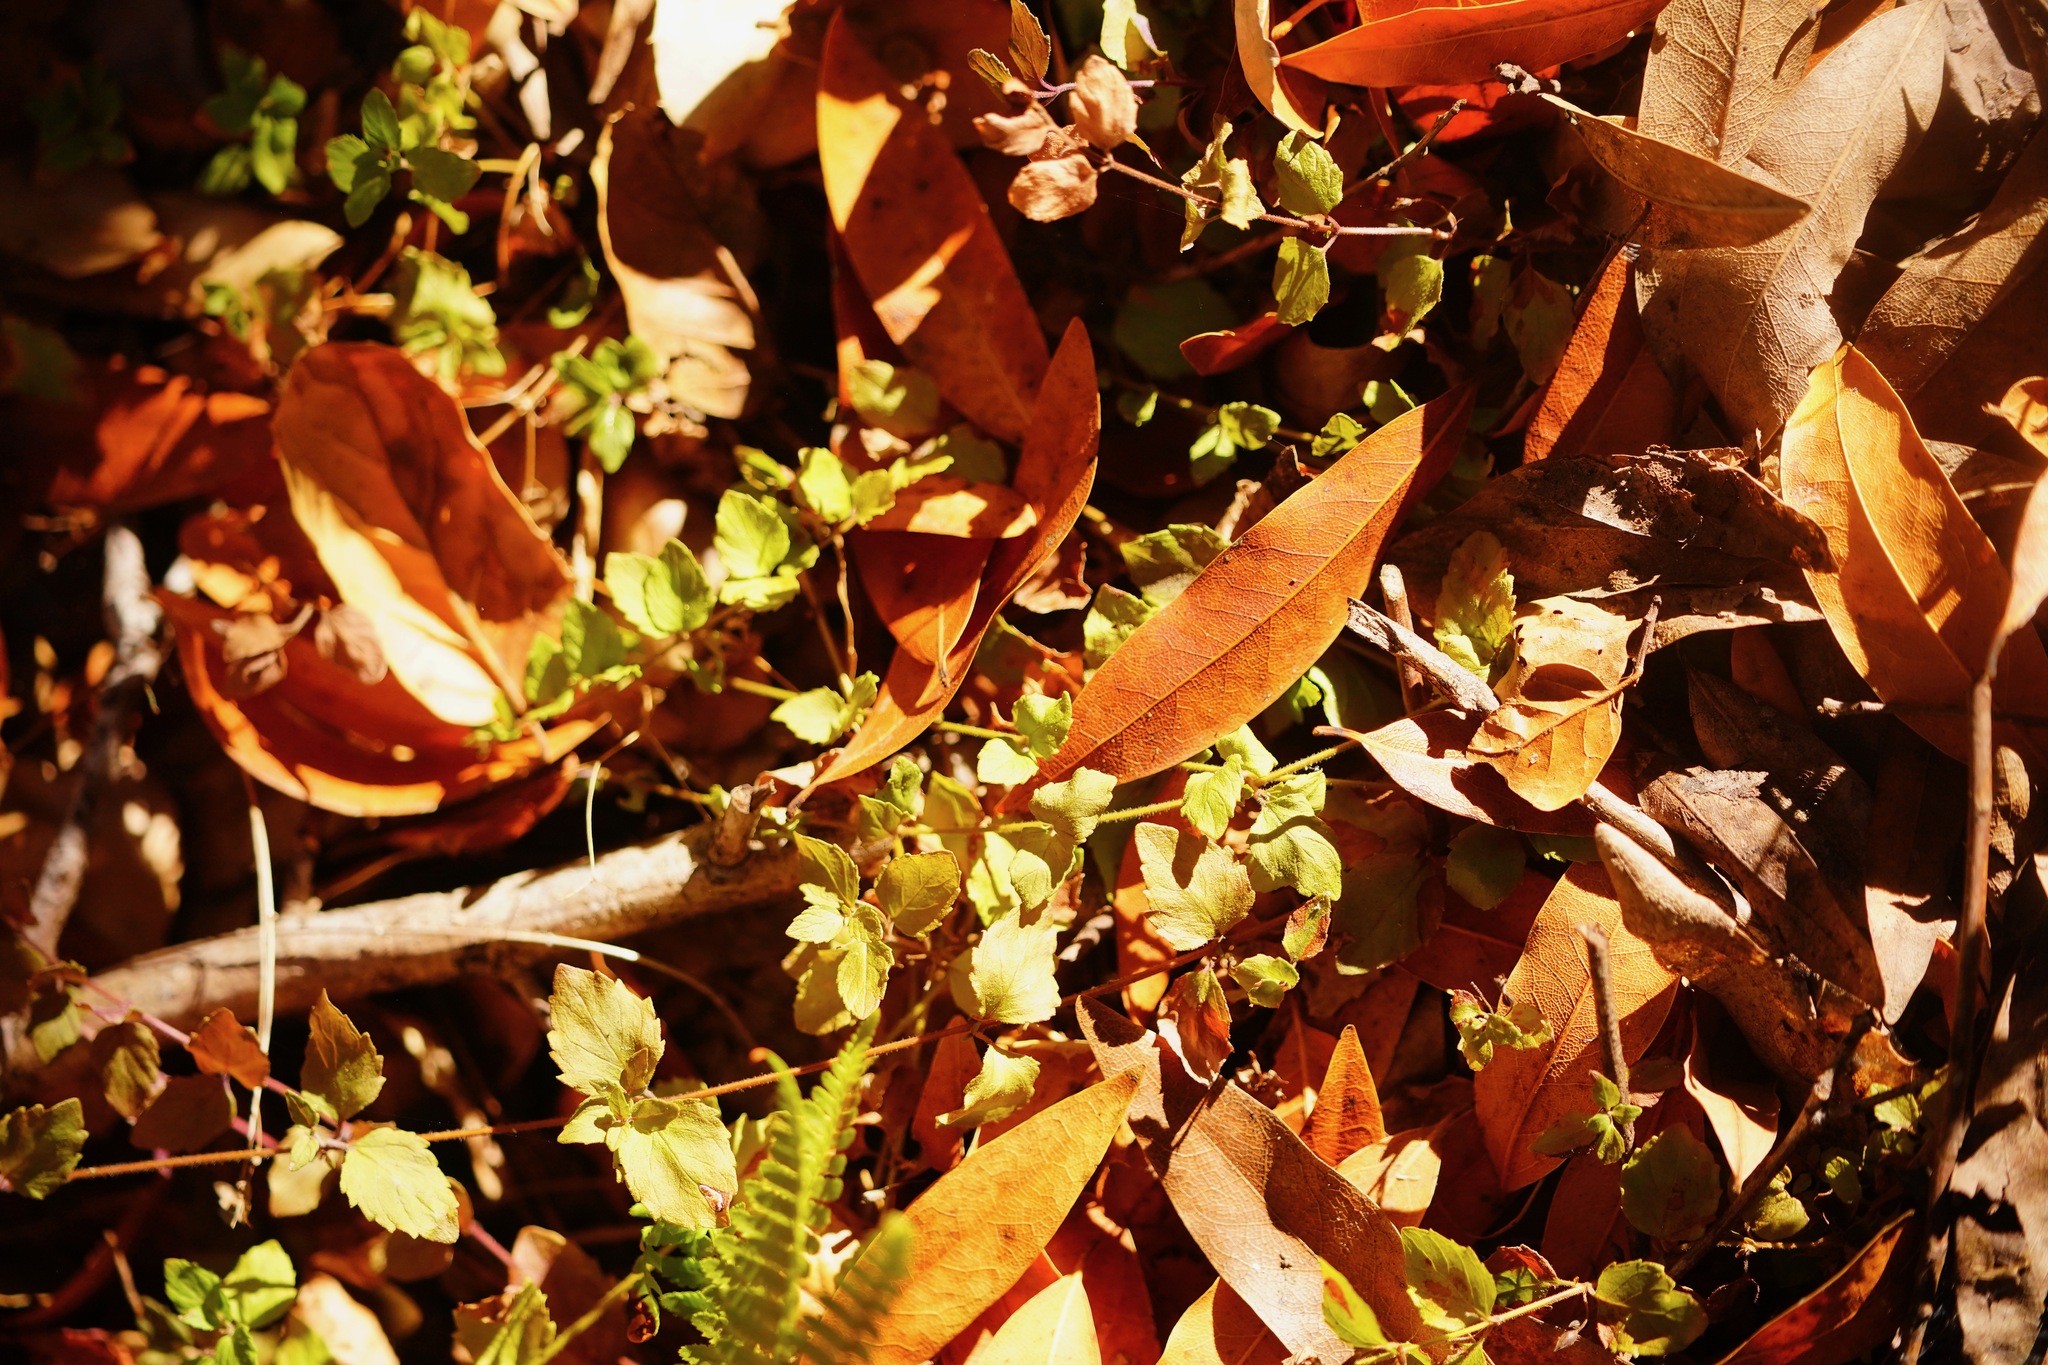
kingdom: Plantae
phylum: Tracheophyta
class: Magnoliopsida
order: Lamiales
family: Lamiaceae
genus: Micromeria
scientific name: Micromeria douglasii
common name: Yerba buena
